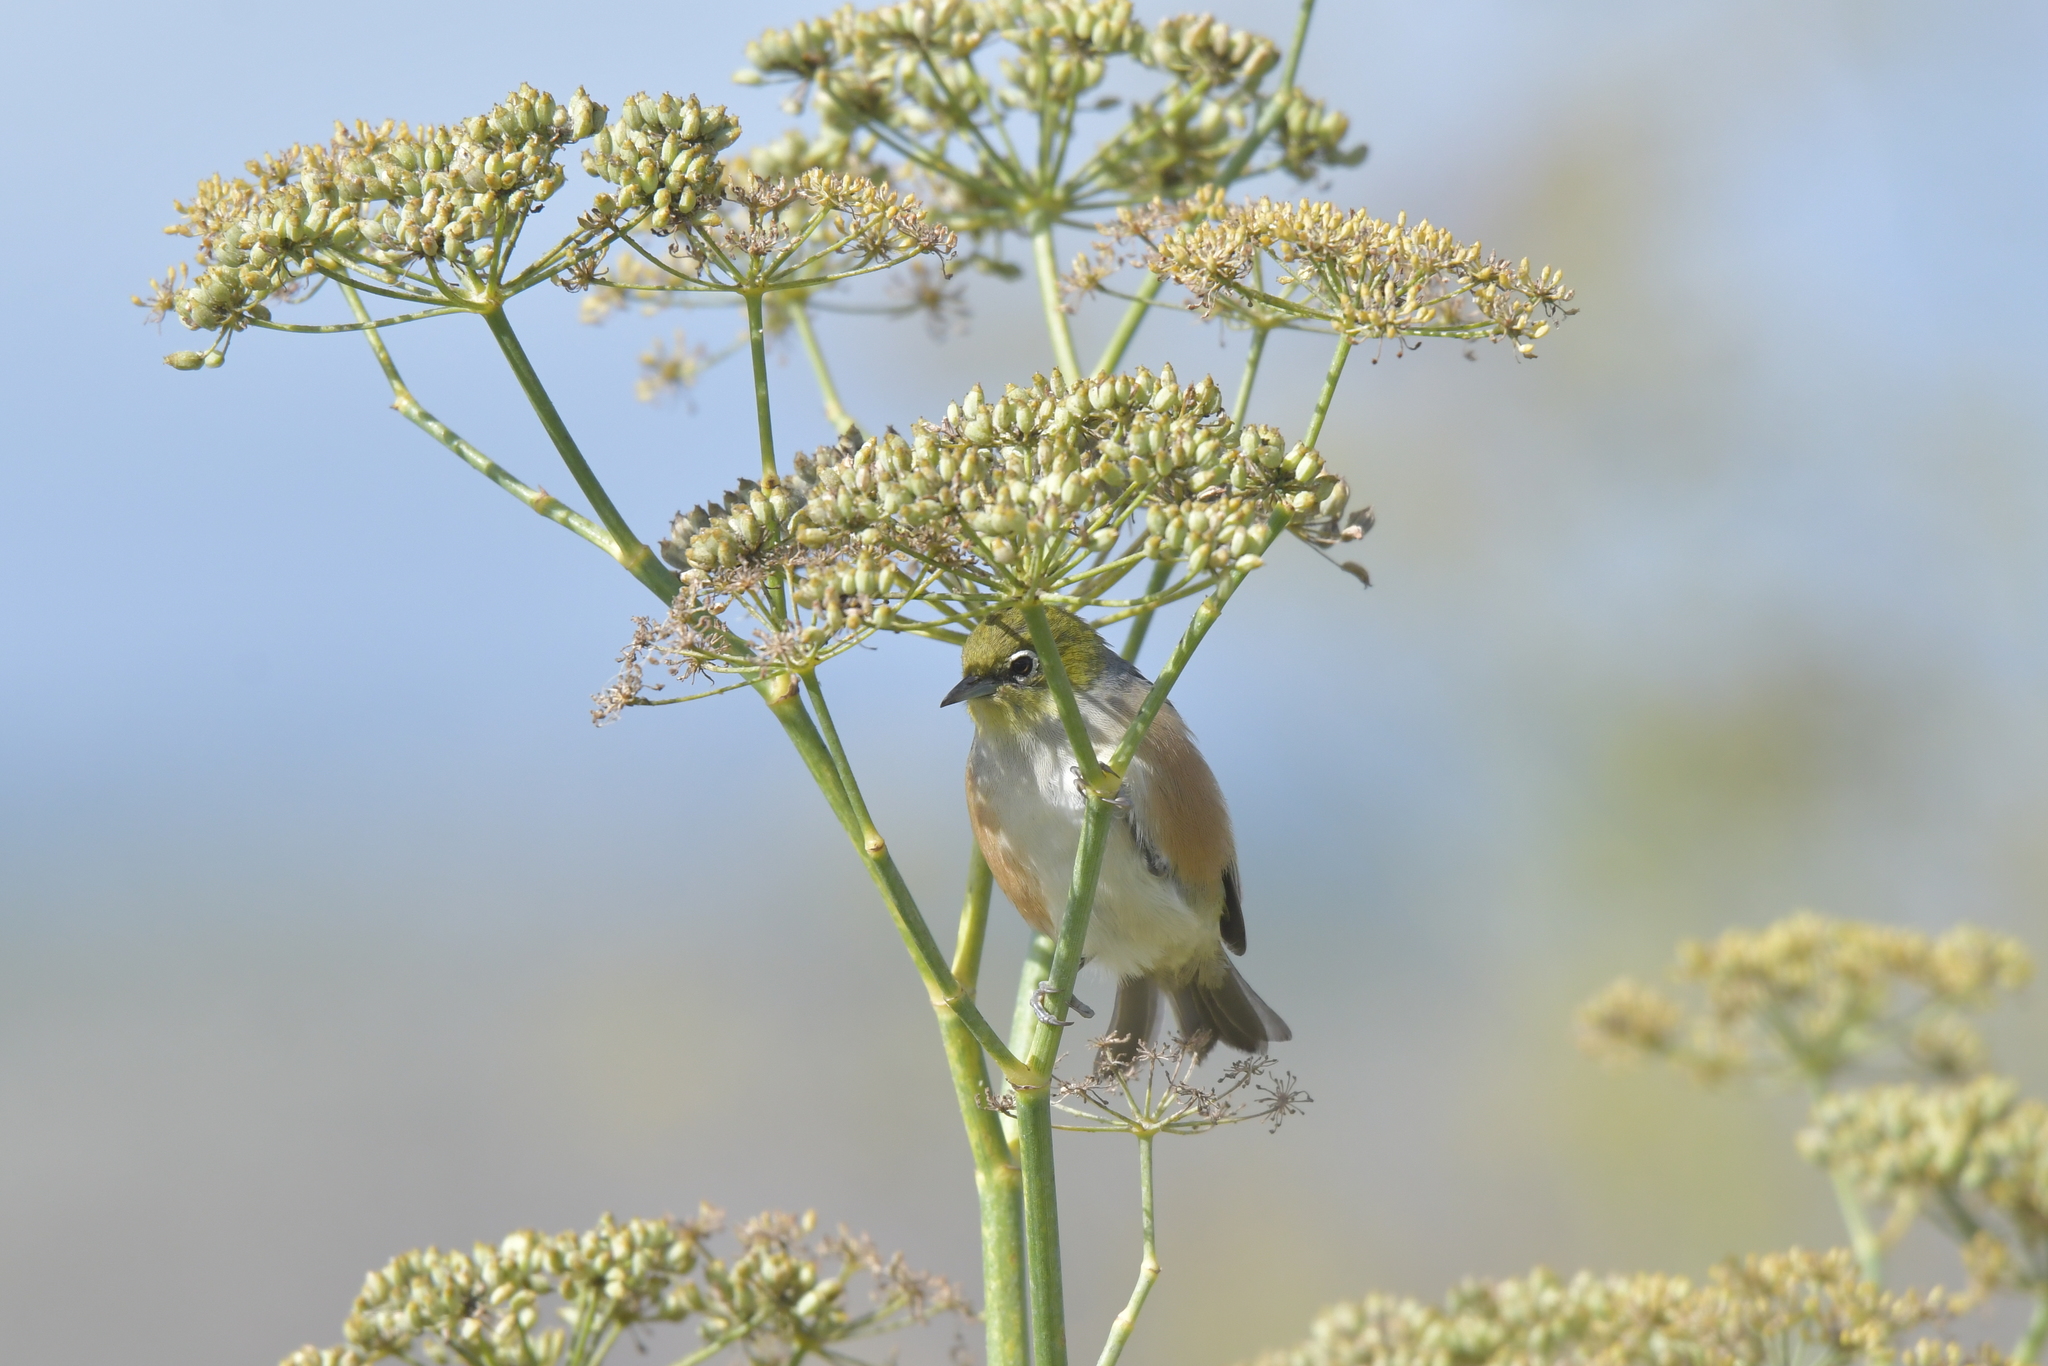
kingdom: Animalia
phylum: Chordata
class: Aves
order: Passeriformes
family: Zosteropidae
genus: Zosterops
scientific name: Zosterops lateralis
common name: Silvereye
